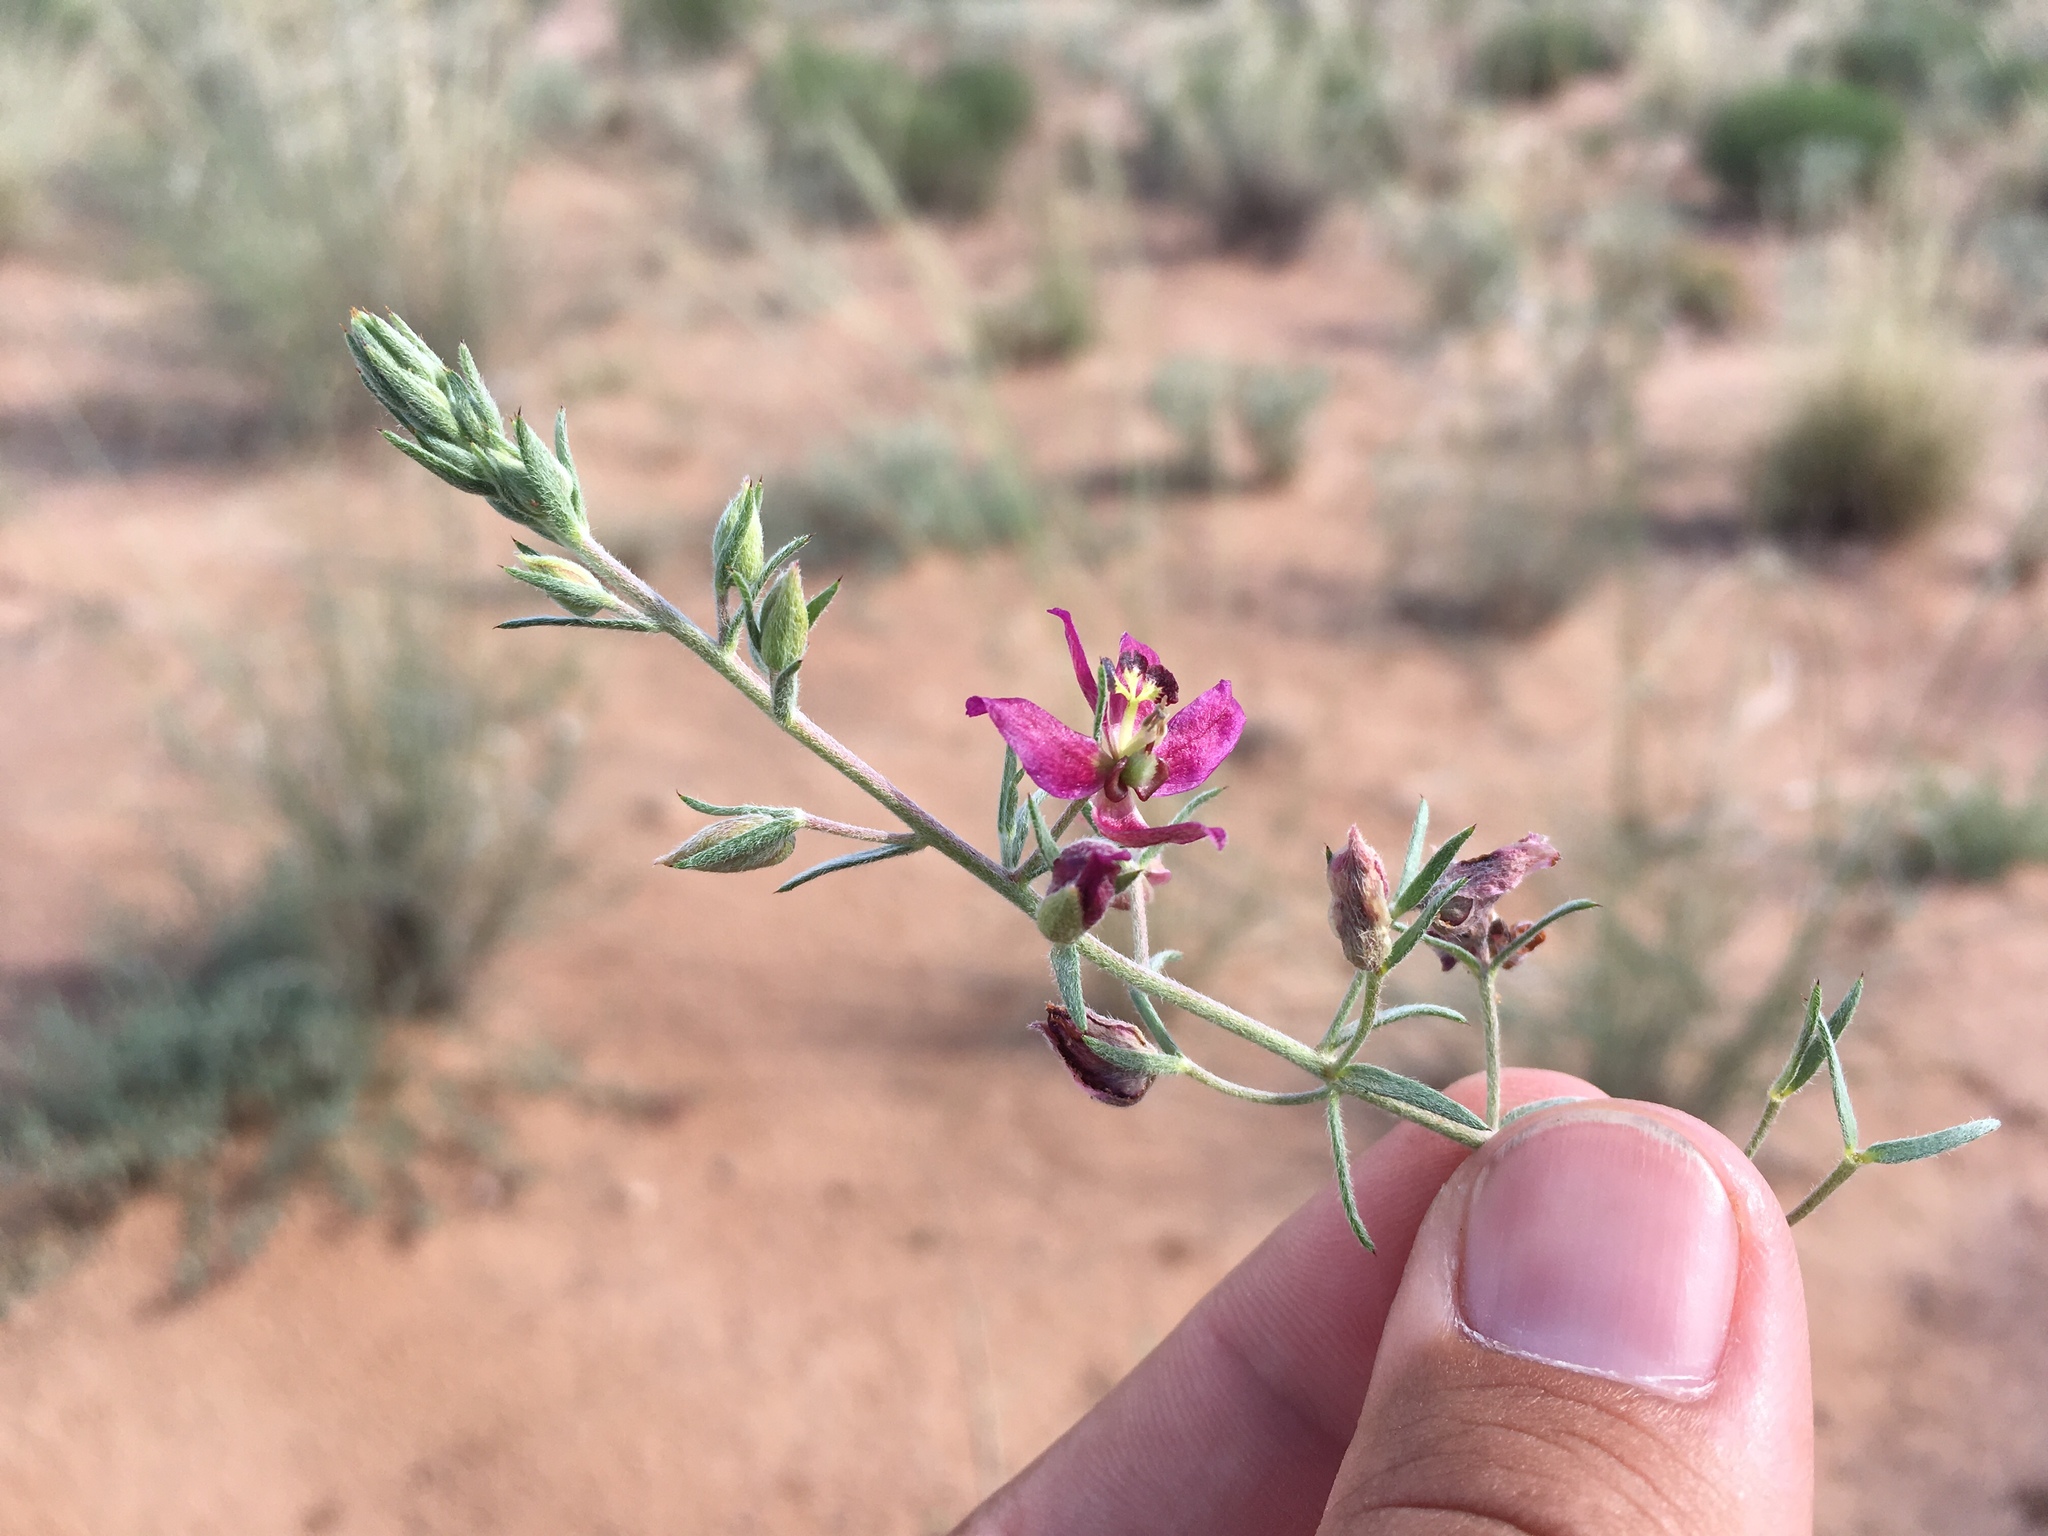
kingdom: Plantae
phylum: Tracheophyta
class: Magnoliopsida
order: Zygophyllales
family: Krameriaceae
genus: Krameria
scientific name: Krameria lanceolata
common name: Ratany
